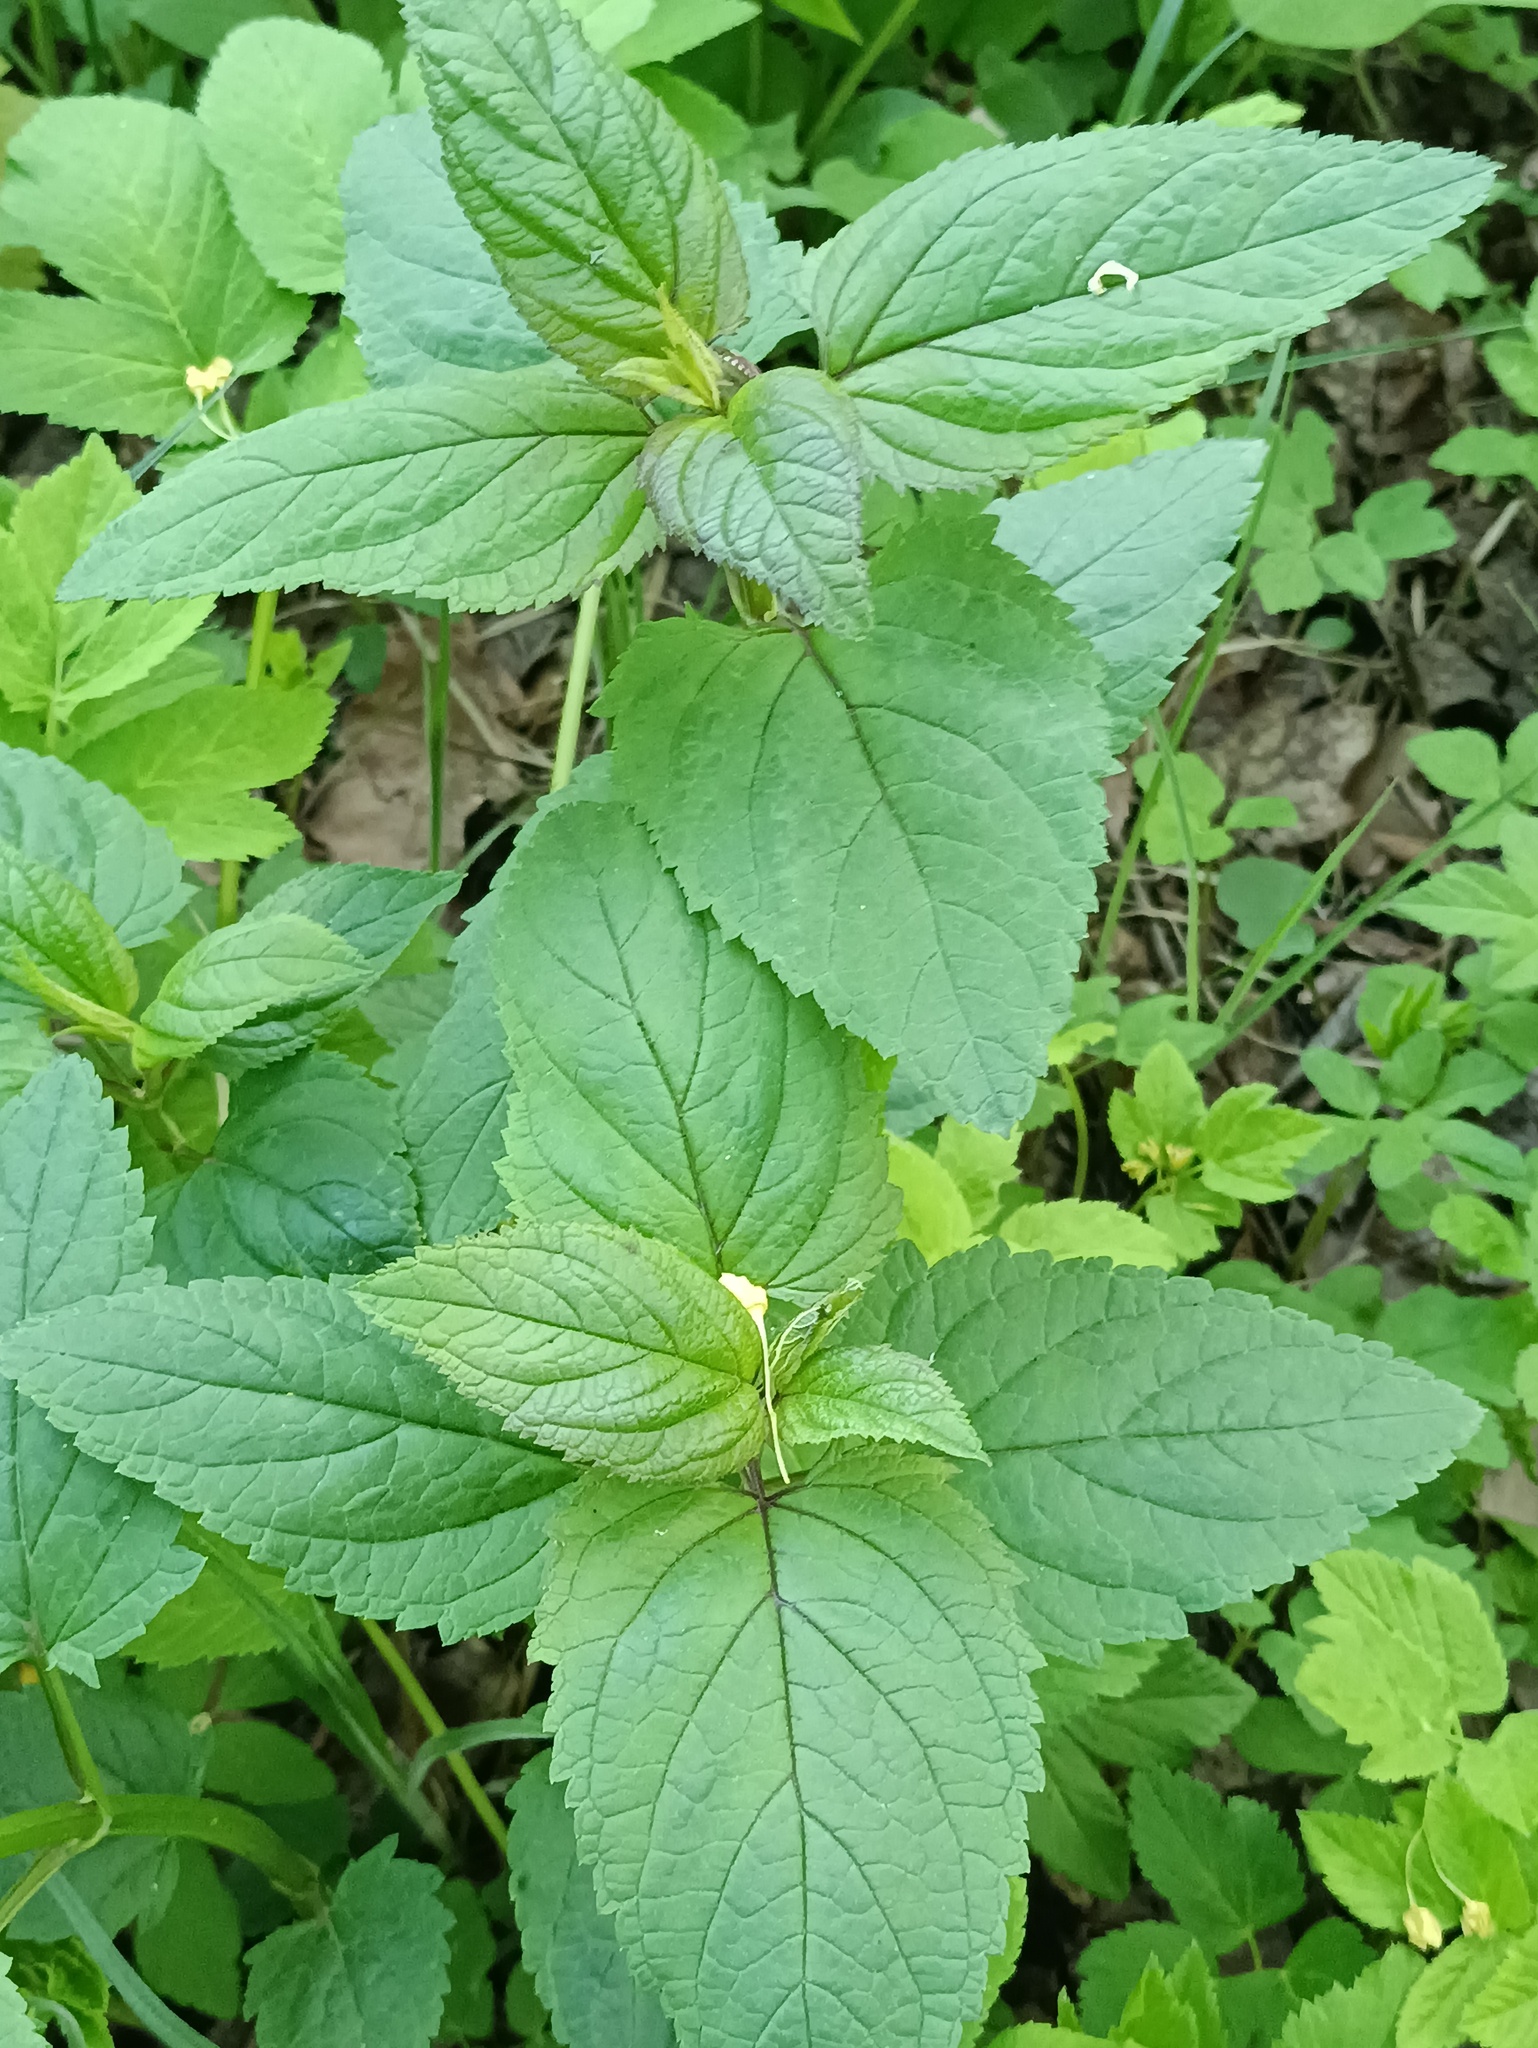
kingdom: Plantae
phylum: Tracheophyta
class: Magnoliopsida
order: Lamiales
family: Scrophulariaceae
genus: Scrophularia
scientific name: Scrophularia nodosa
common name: Common figwort
